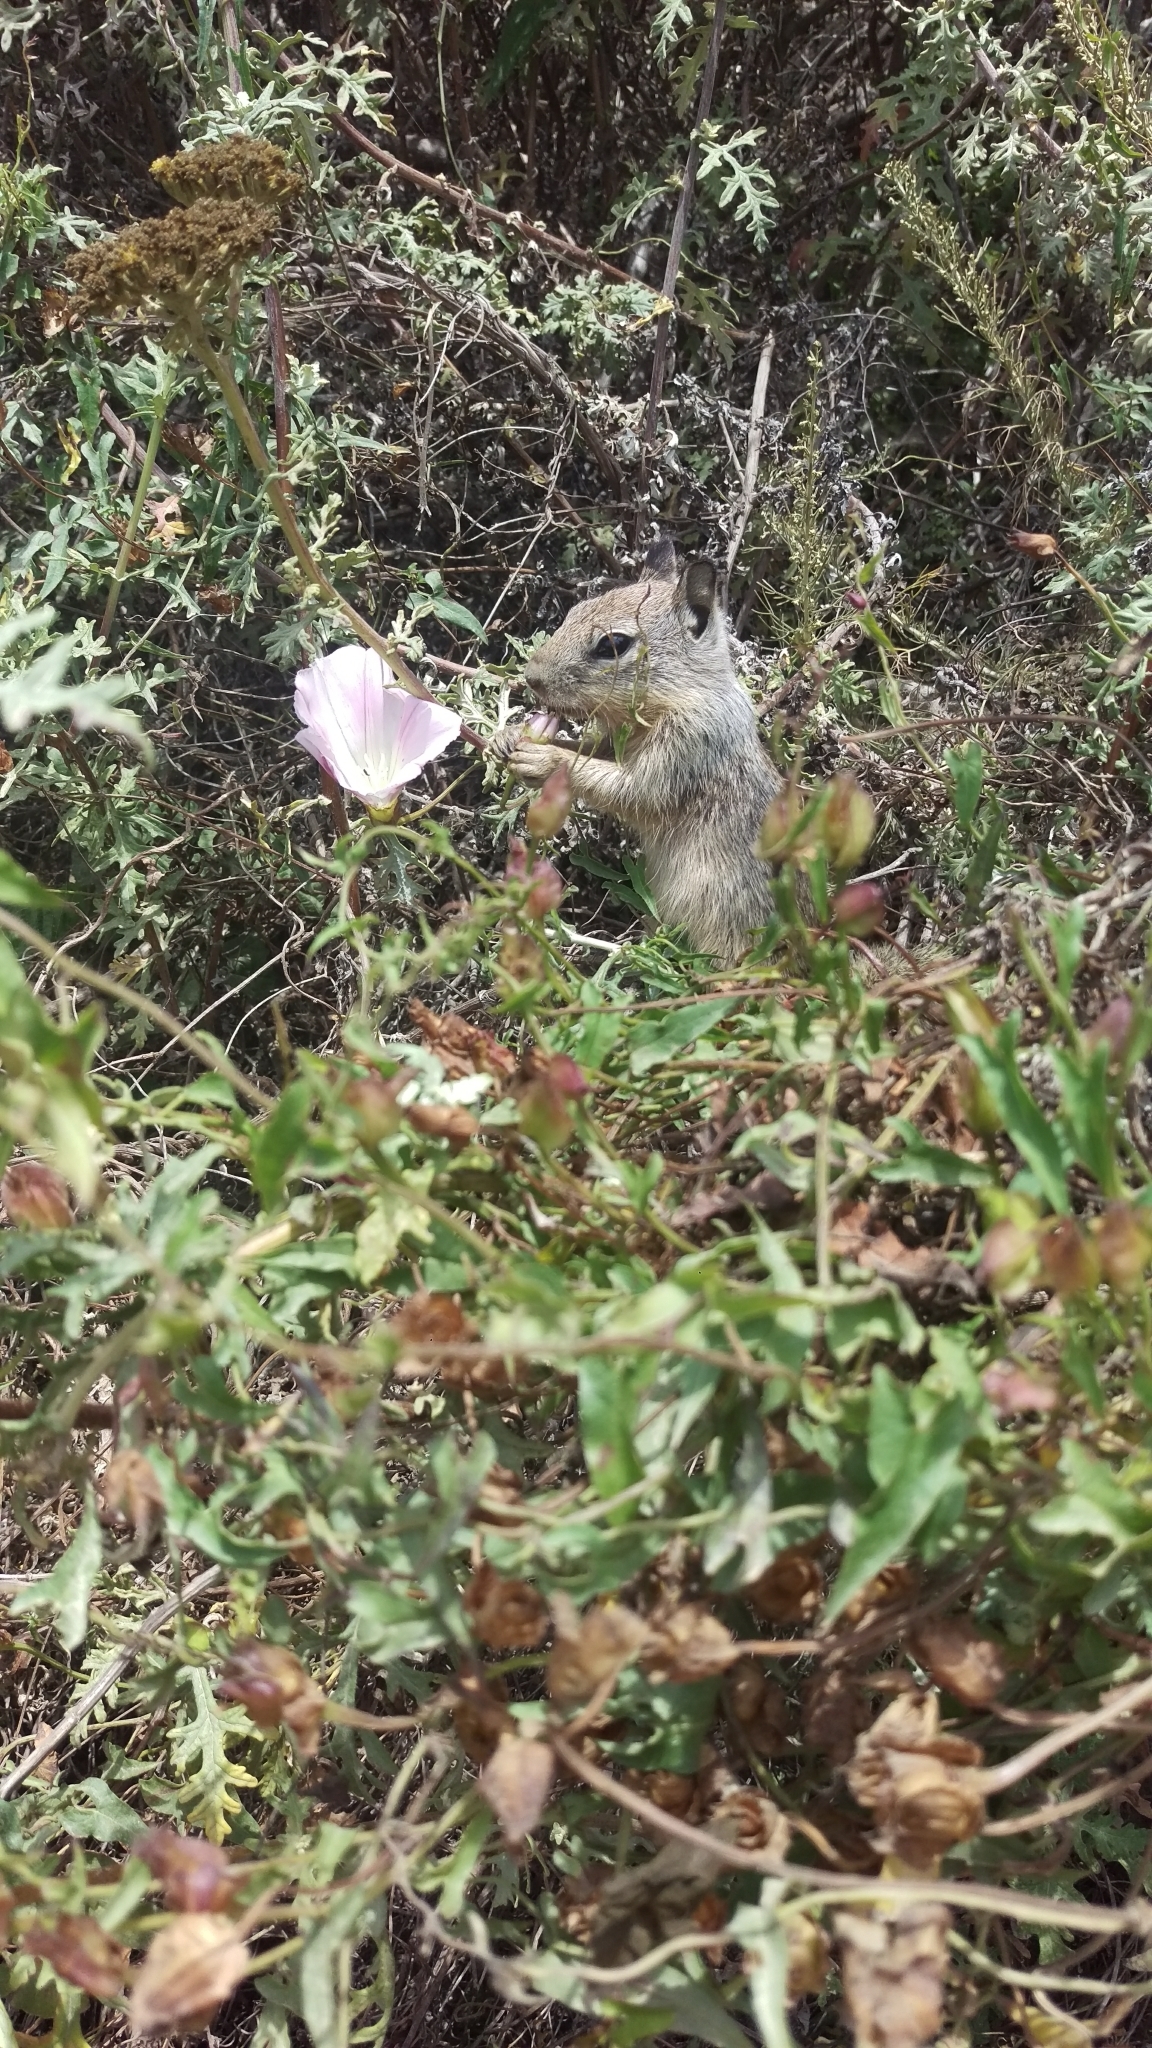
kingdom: Animalia
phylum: Chordata
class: Mammalia
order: Rodentia
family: Sciuridae
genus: Otospermophilus
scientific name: Otospermophilus beecheyi
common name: California ground squirrel
